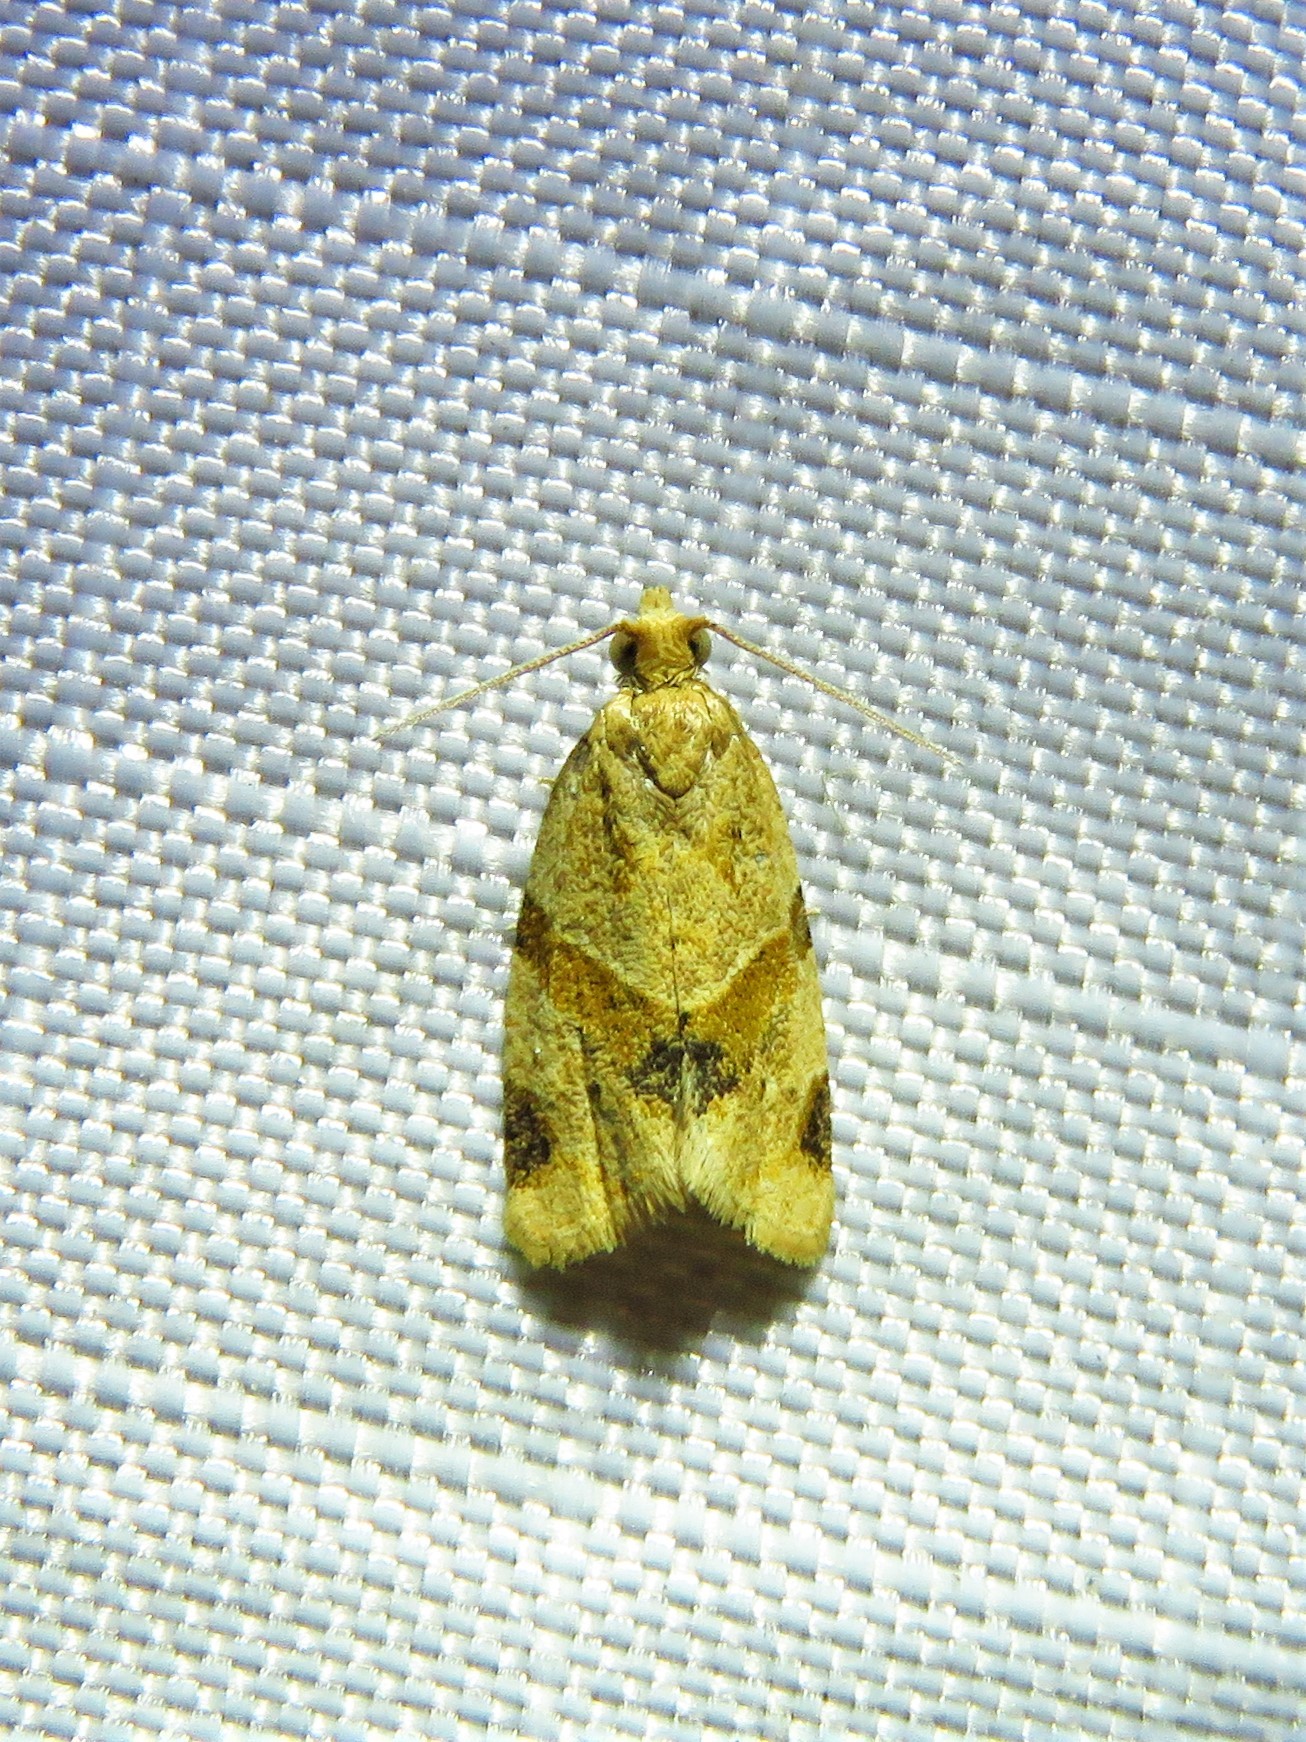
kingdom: Animalia
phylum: Arthropoda
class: Insecta
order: Lepidoptera
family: Tortricidae
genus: Clepsis
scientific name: Clepsis peritana
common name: Garden tortrix
